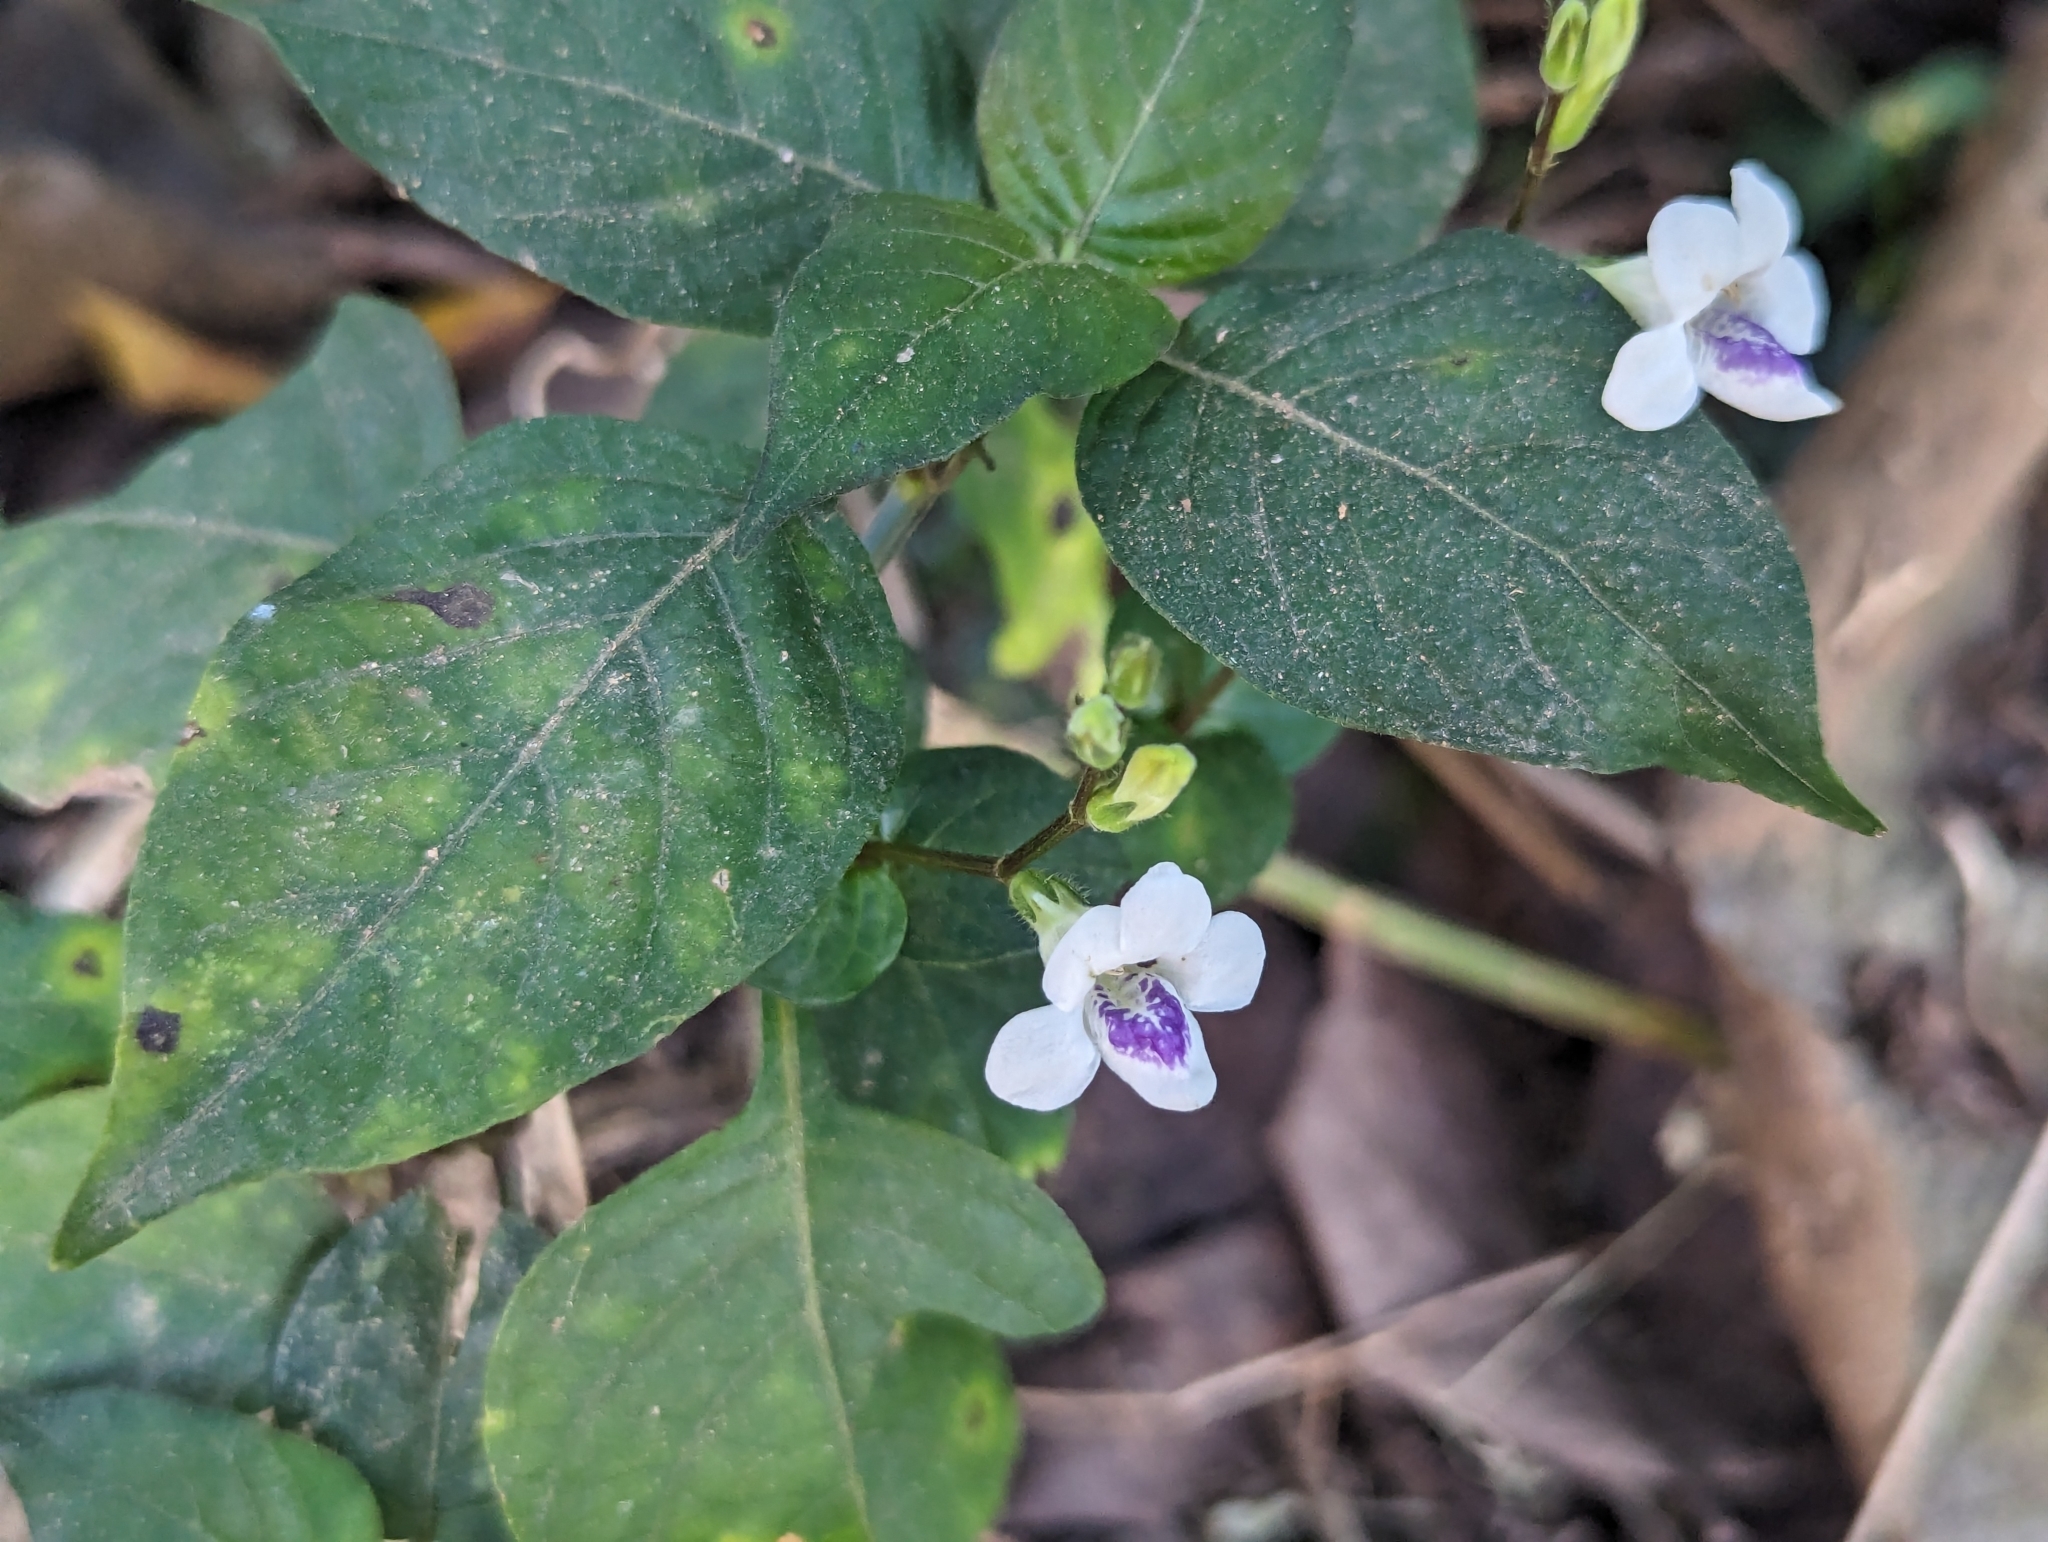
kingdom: Plantae
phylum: Tracheophyta
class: Magnoliopsida
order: Lamiales
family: Acanthaceae
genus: Asystasia
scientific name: Asystasia intrusa
